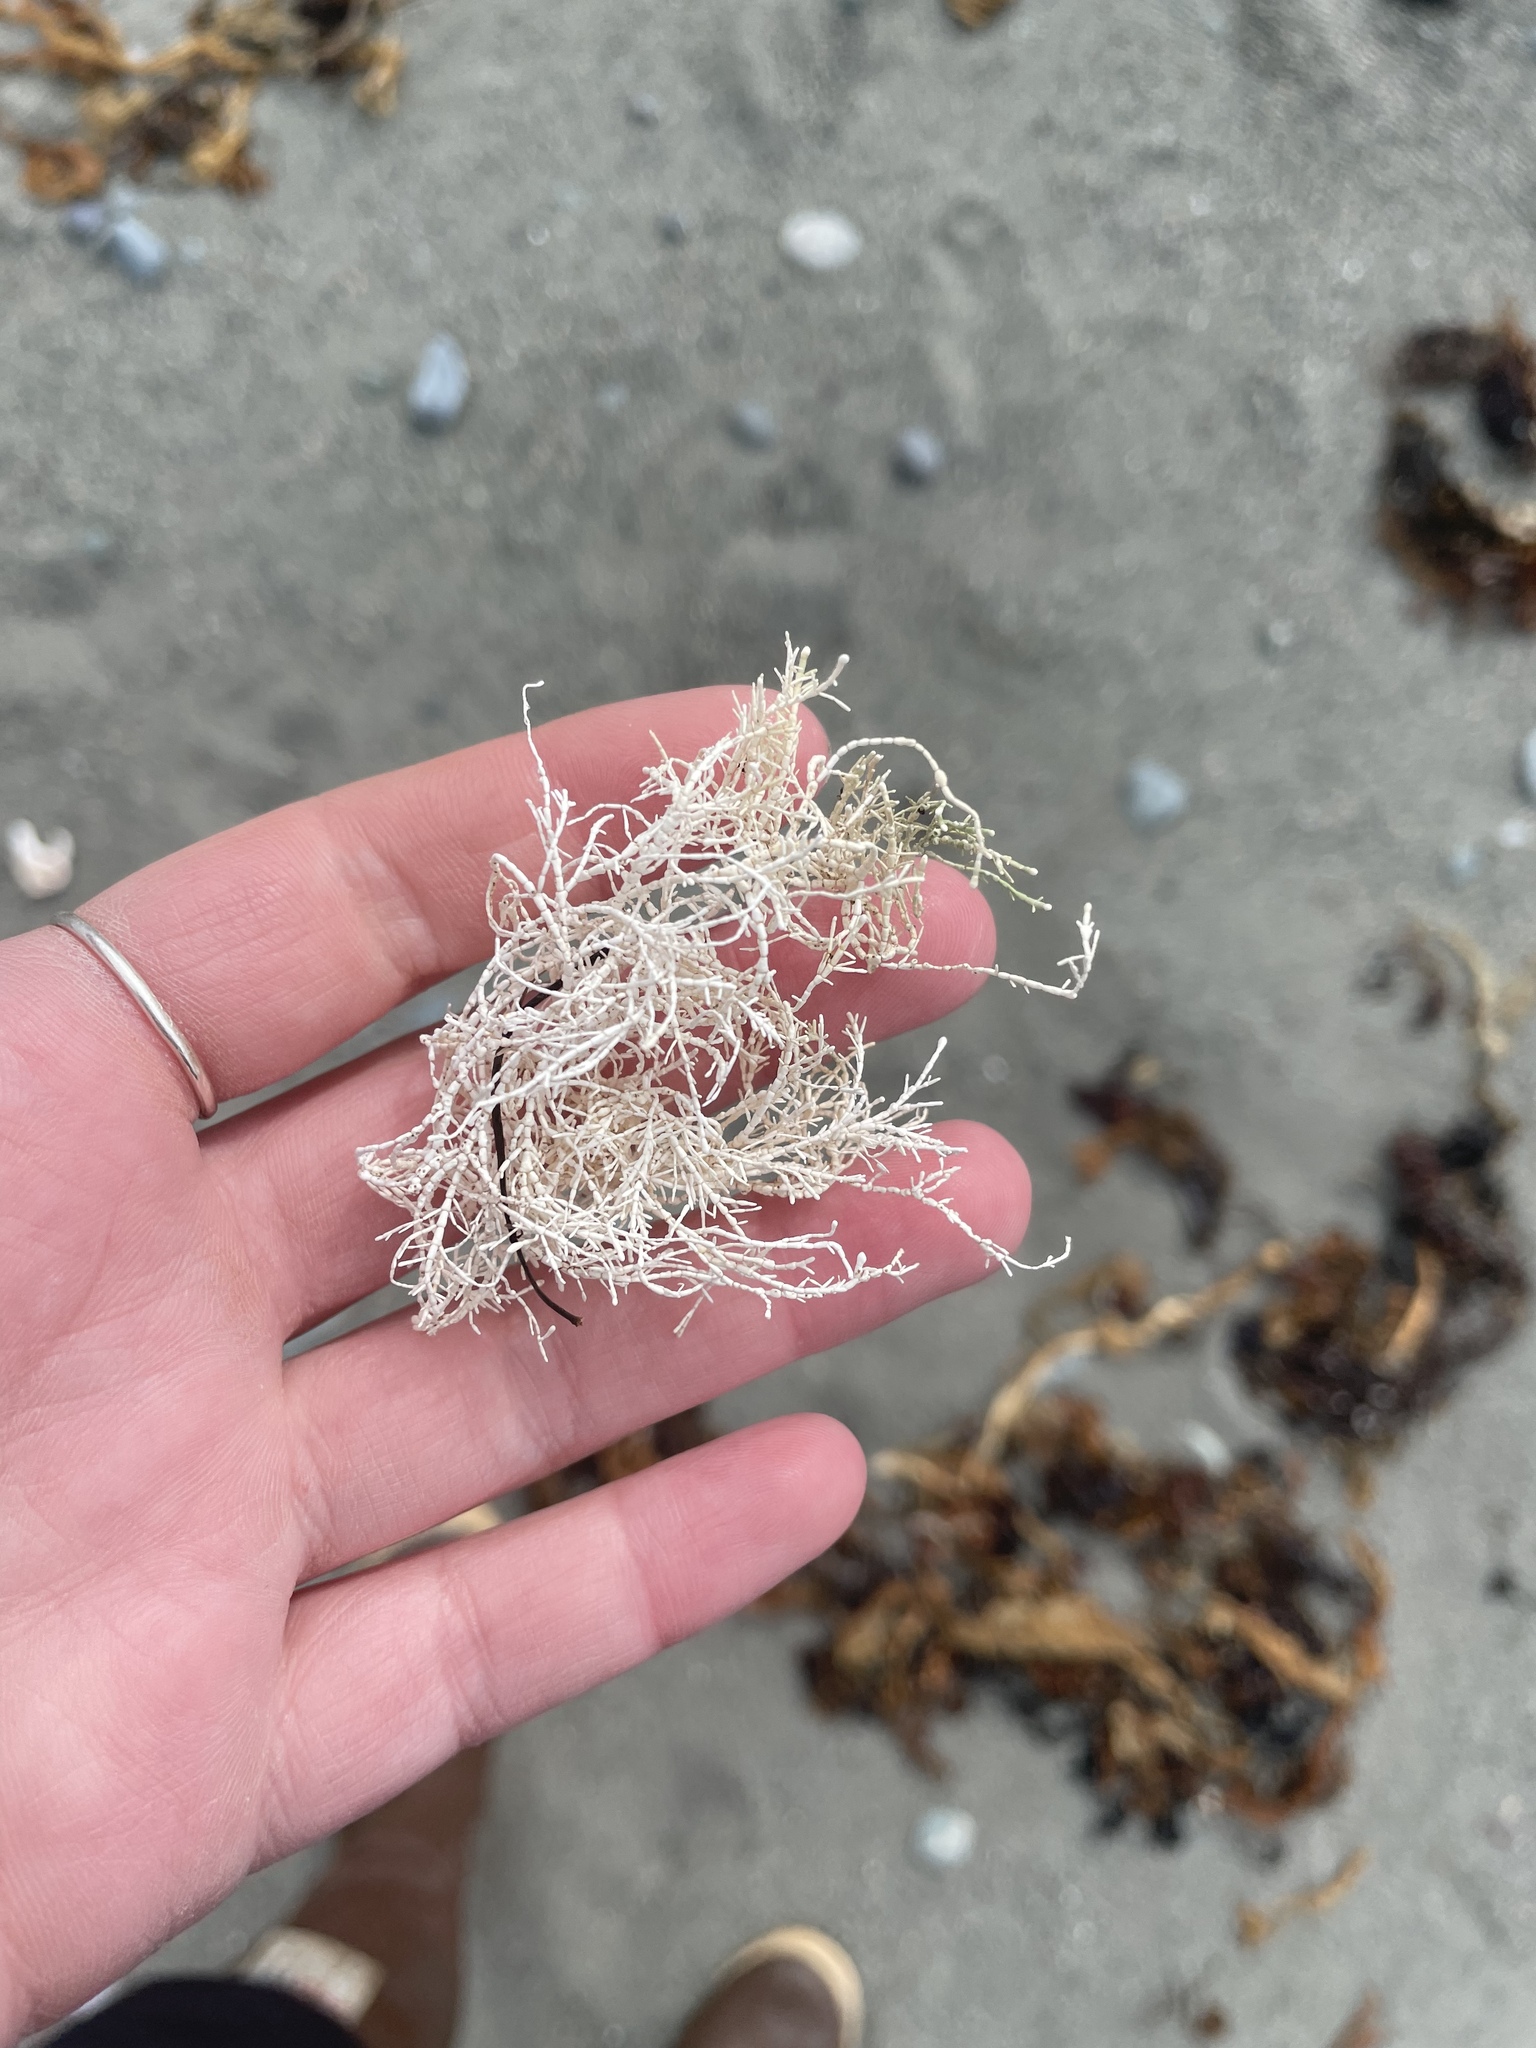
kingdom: Plantae
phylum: Rhodophyta
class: Florideophyceae
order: Corallinales
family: Corallinaceae
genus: Corallina
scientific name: Corallina officinalis
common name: Coral weed
